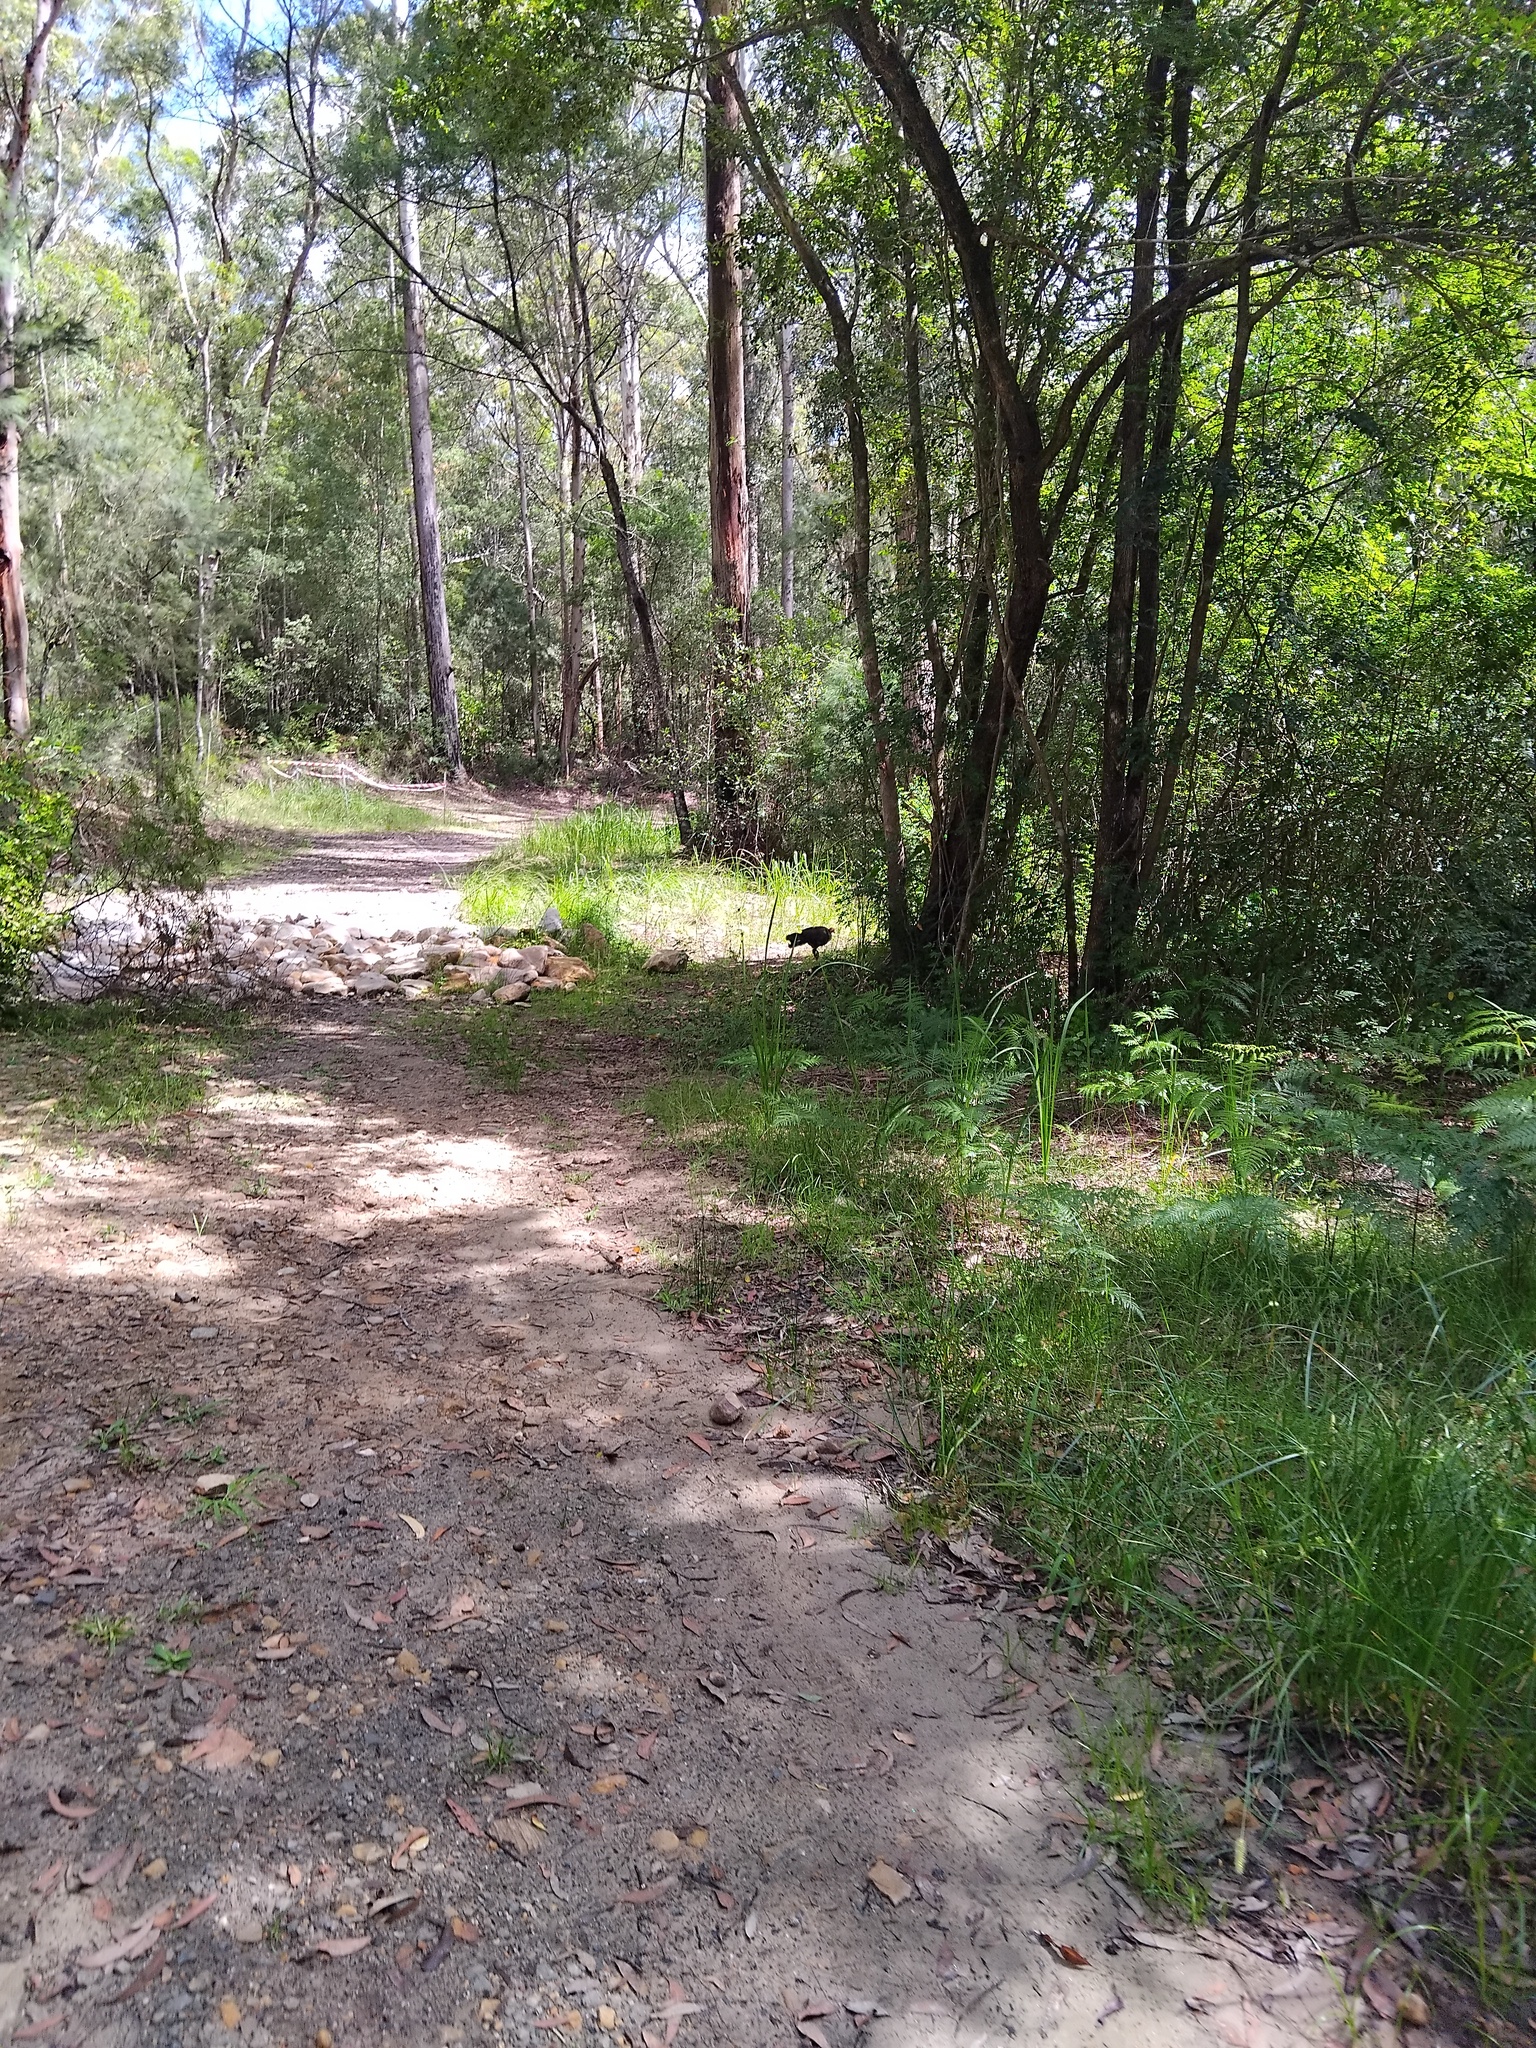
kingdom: Animalia
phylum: Chordata
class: Aves
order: Galliformes
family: Megapodiidae
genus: Alectura
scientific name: Alectura lathami
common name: Australian brushturkey
